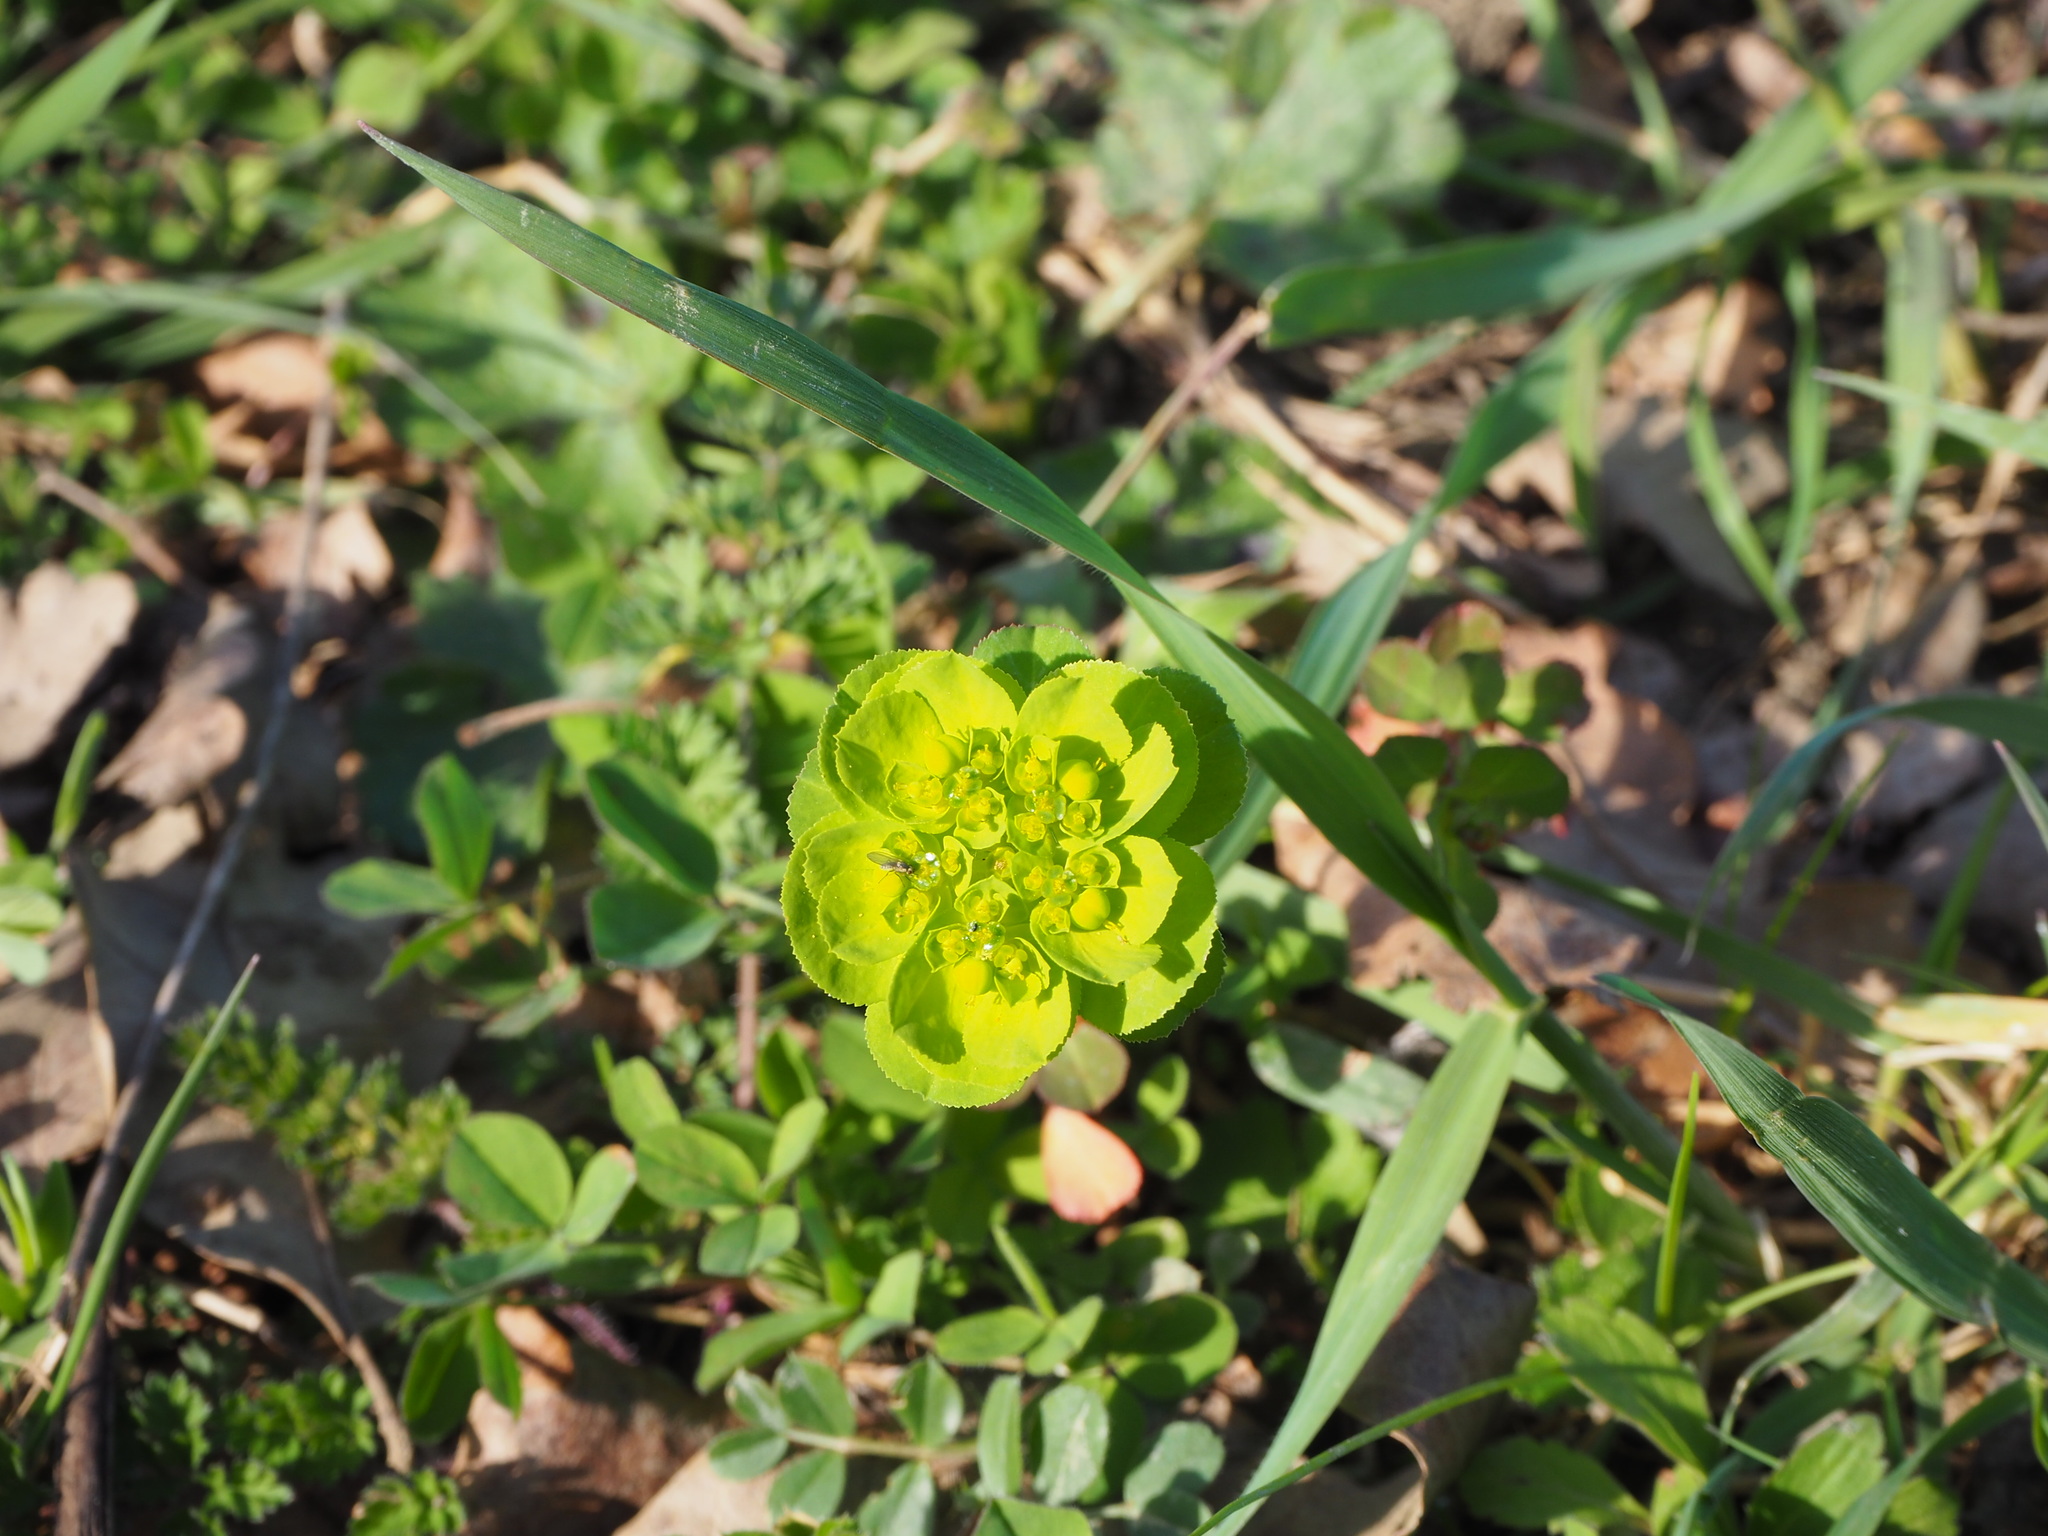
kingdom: Plantae
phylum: Tracheophyta
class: Magnoliopsida
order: Malpighiales
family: Euphorbiaceae
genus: Euphorbia
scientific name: Euphorbia helioscopia
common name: Sun spurge
